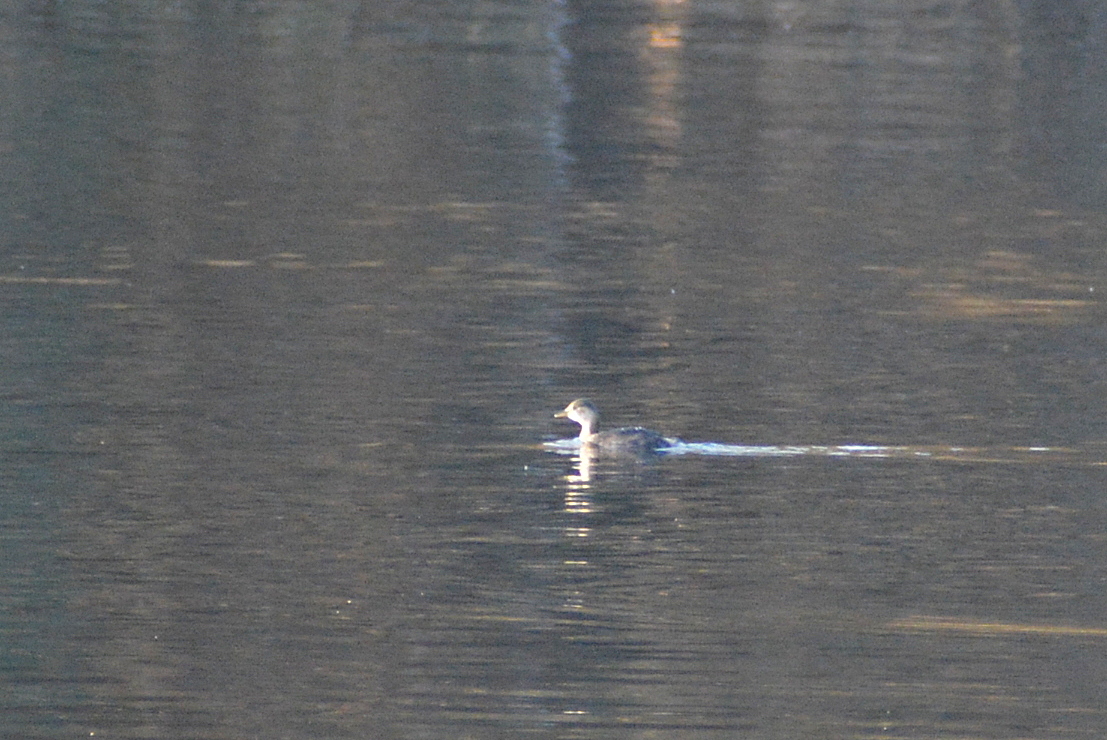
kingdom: Animalia
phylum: Chordata
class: Aves
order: Podicipediformes
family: Podicipedidae
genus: Tachybaptus
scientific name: Tachybaptus ruficollis
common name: Little grebe
